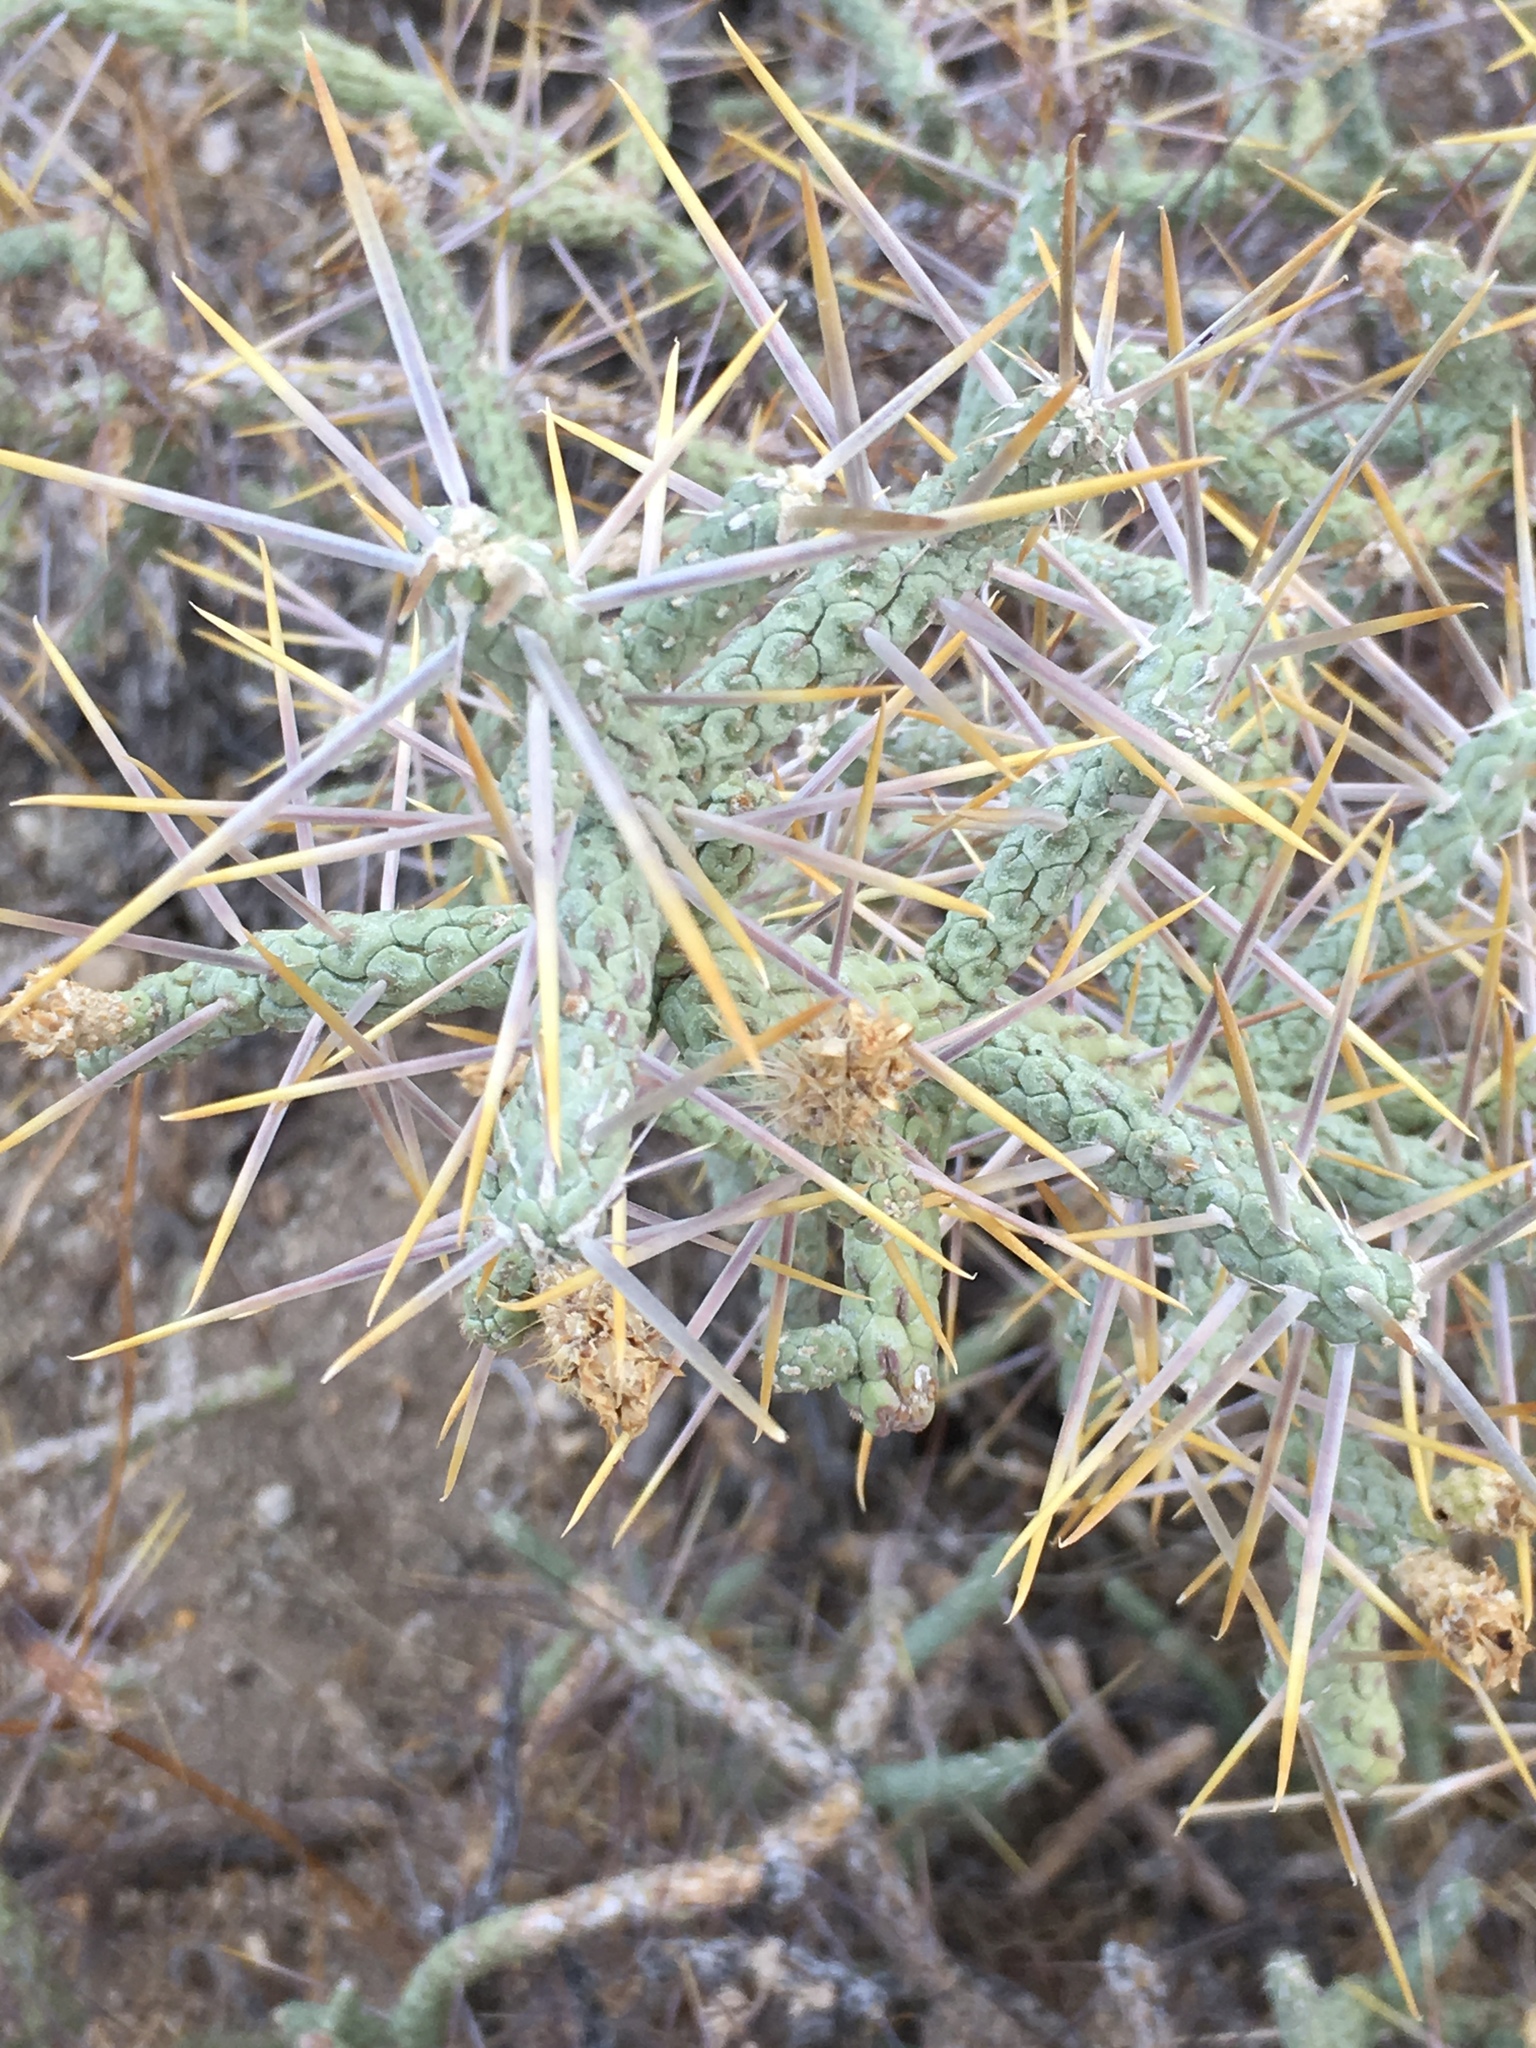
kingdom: Plantae
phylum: Tracheophyta
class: Magnoliopsida
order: Caryophyllales
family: Cactaceae
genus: Cylindropuntia
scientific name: Cylindropuntia ramosissima
